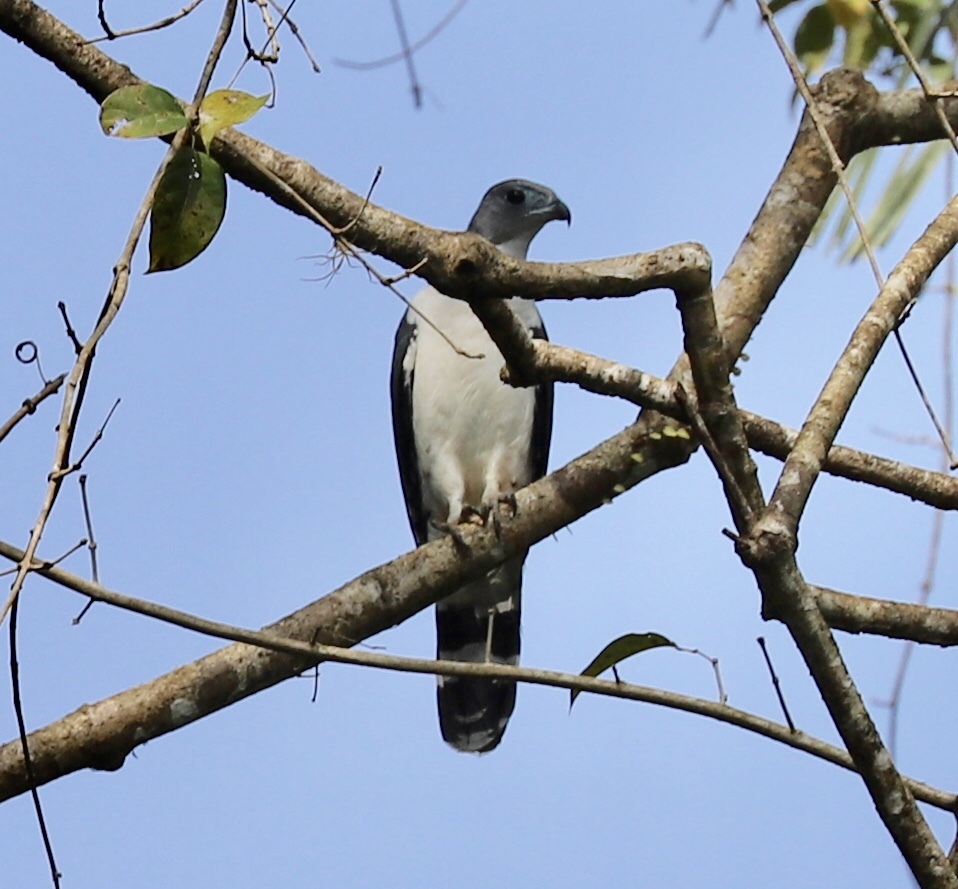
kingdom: Animalia
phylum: Chordata
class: Aves
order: Accipitriformes
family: Accipitridae
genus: Leptodon
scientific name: Leptodon cayanensis
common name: Gray-headed kite
